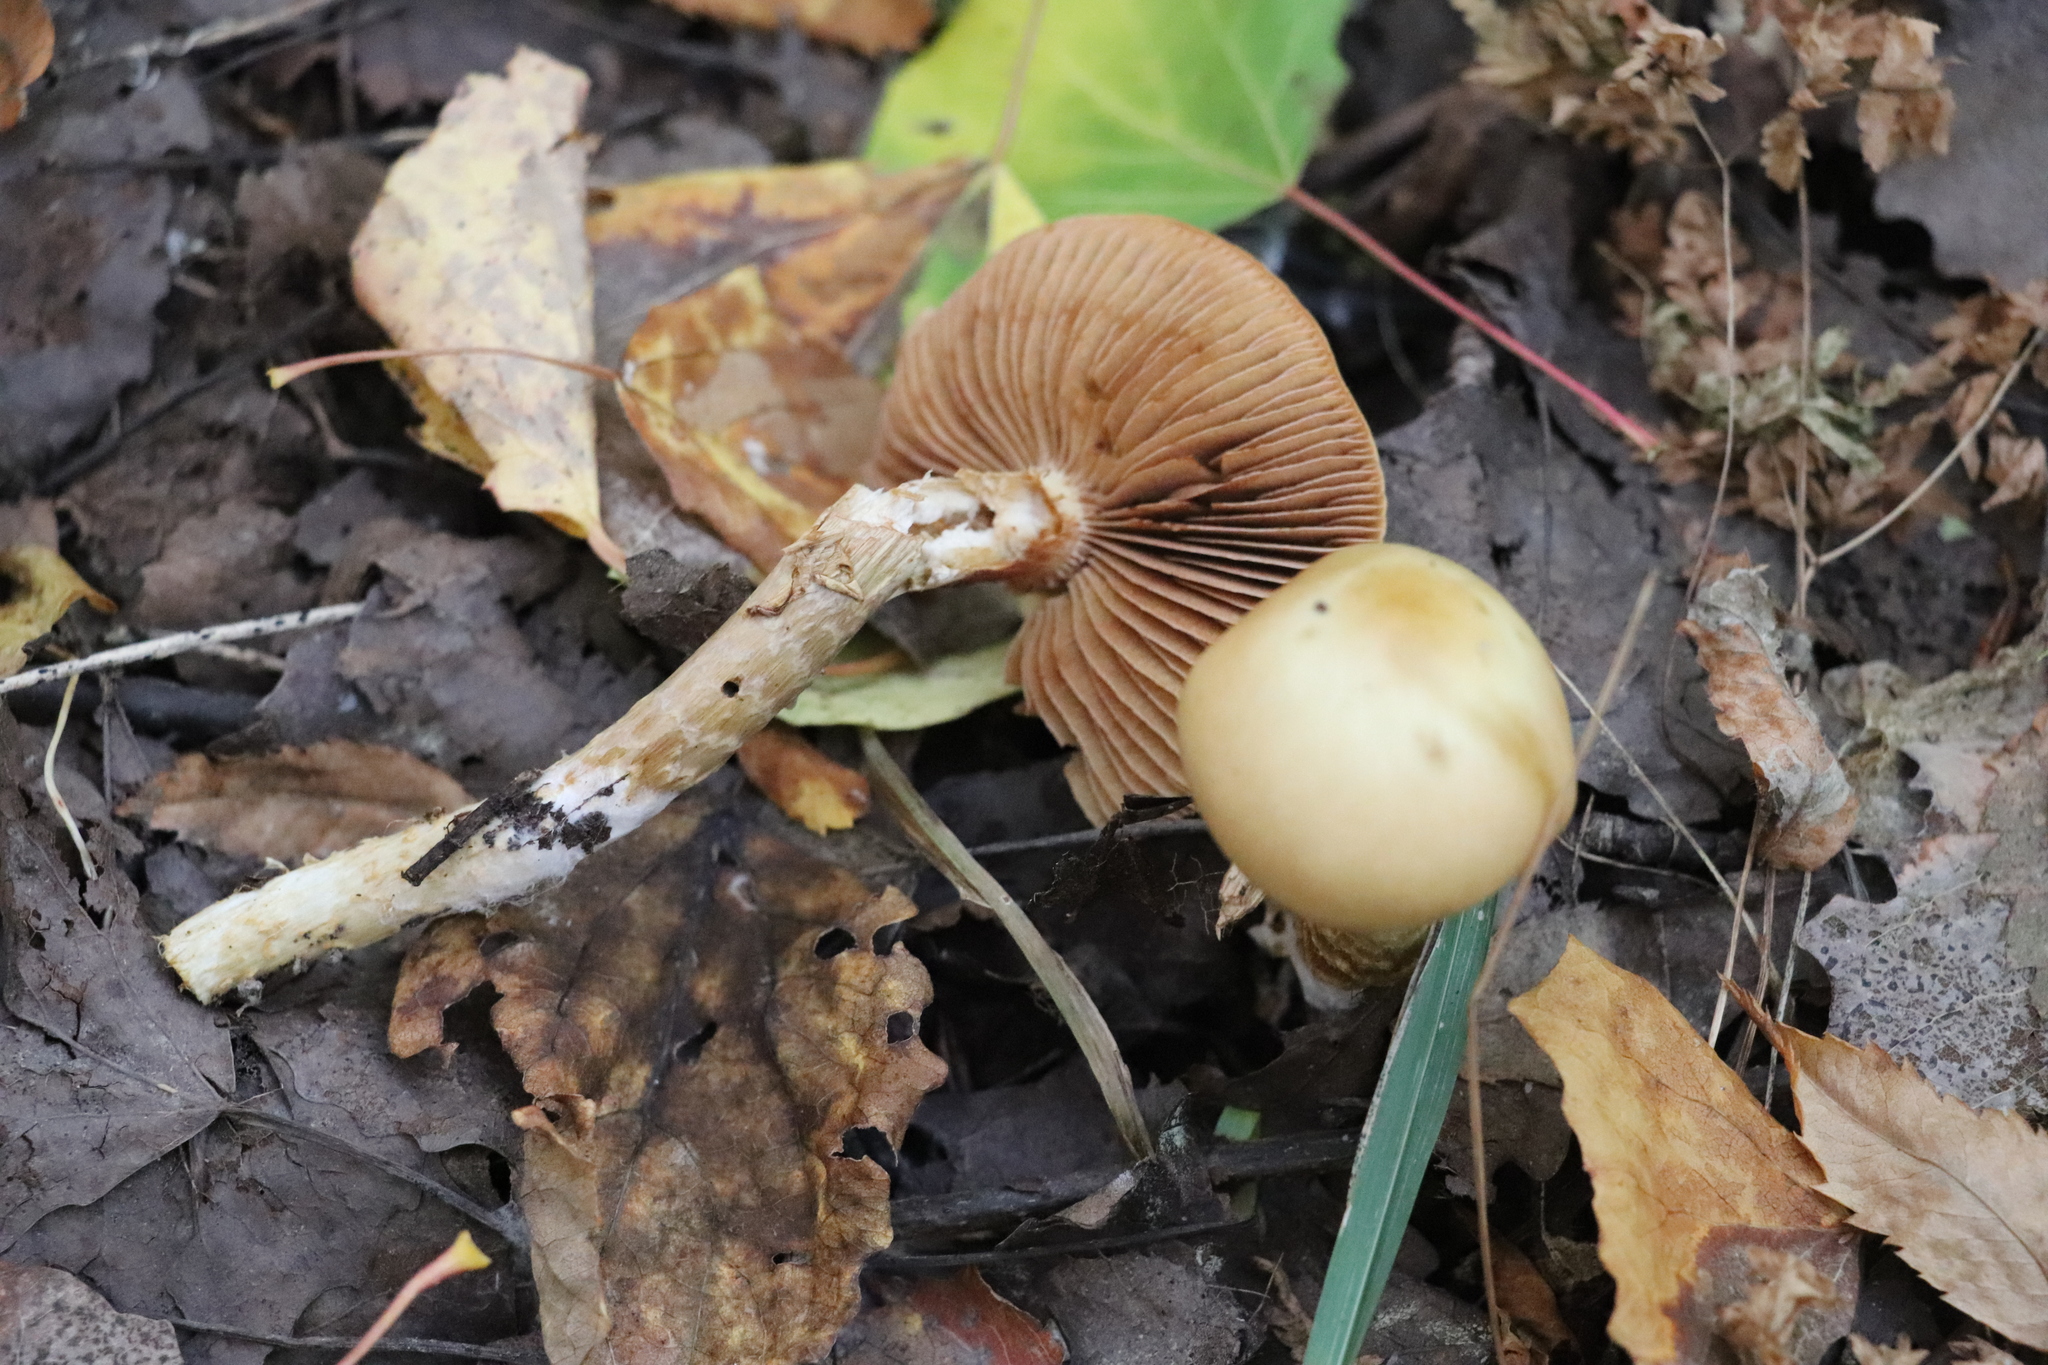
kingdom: Fungi
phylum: Basidiomycota
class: Agaricomycetes
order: Agaricales
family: Cortinariaceae
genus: Cortinarius
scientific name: Cortinarius trivialis
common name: Girdled webcap
